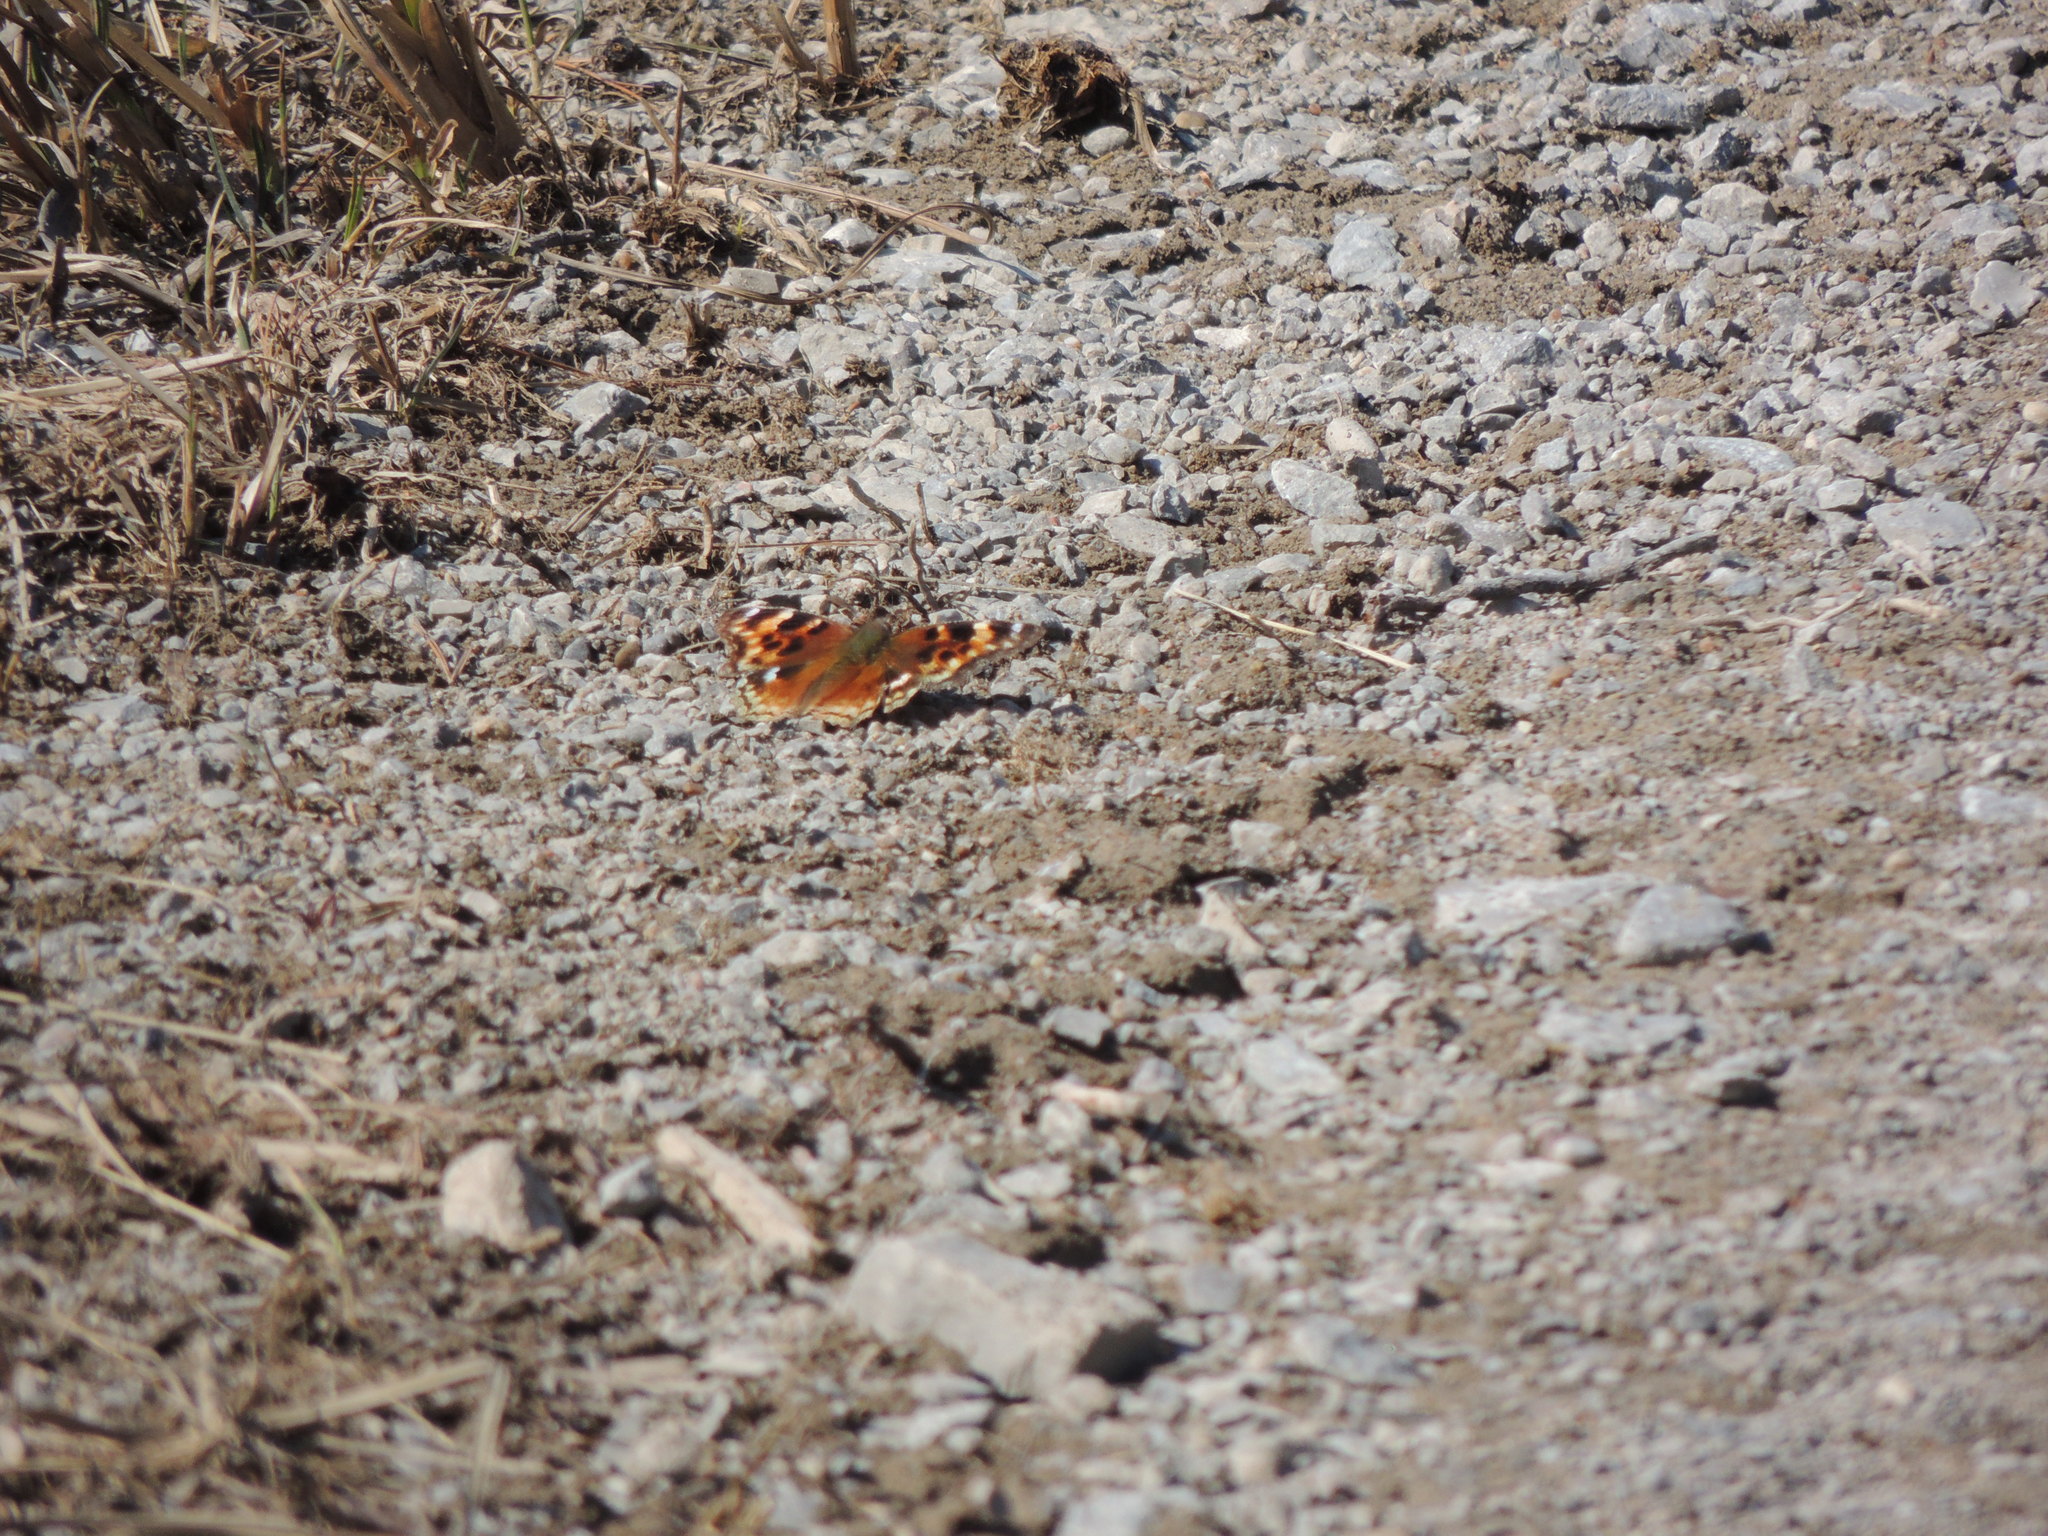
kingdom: Animalia
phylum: Arthropoda
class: Insecta
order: Lepidoptera
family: Nymphalidae
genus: Polygonia
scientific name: Polygonia vaualbum
